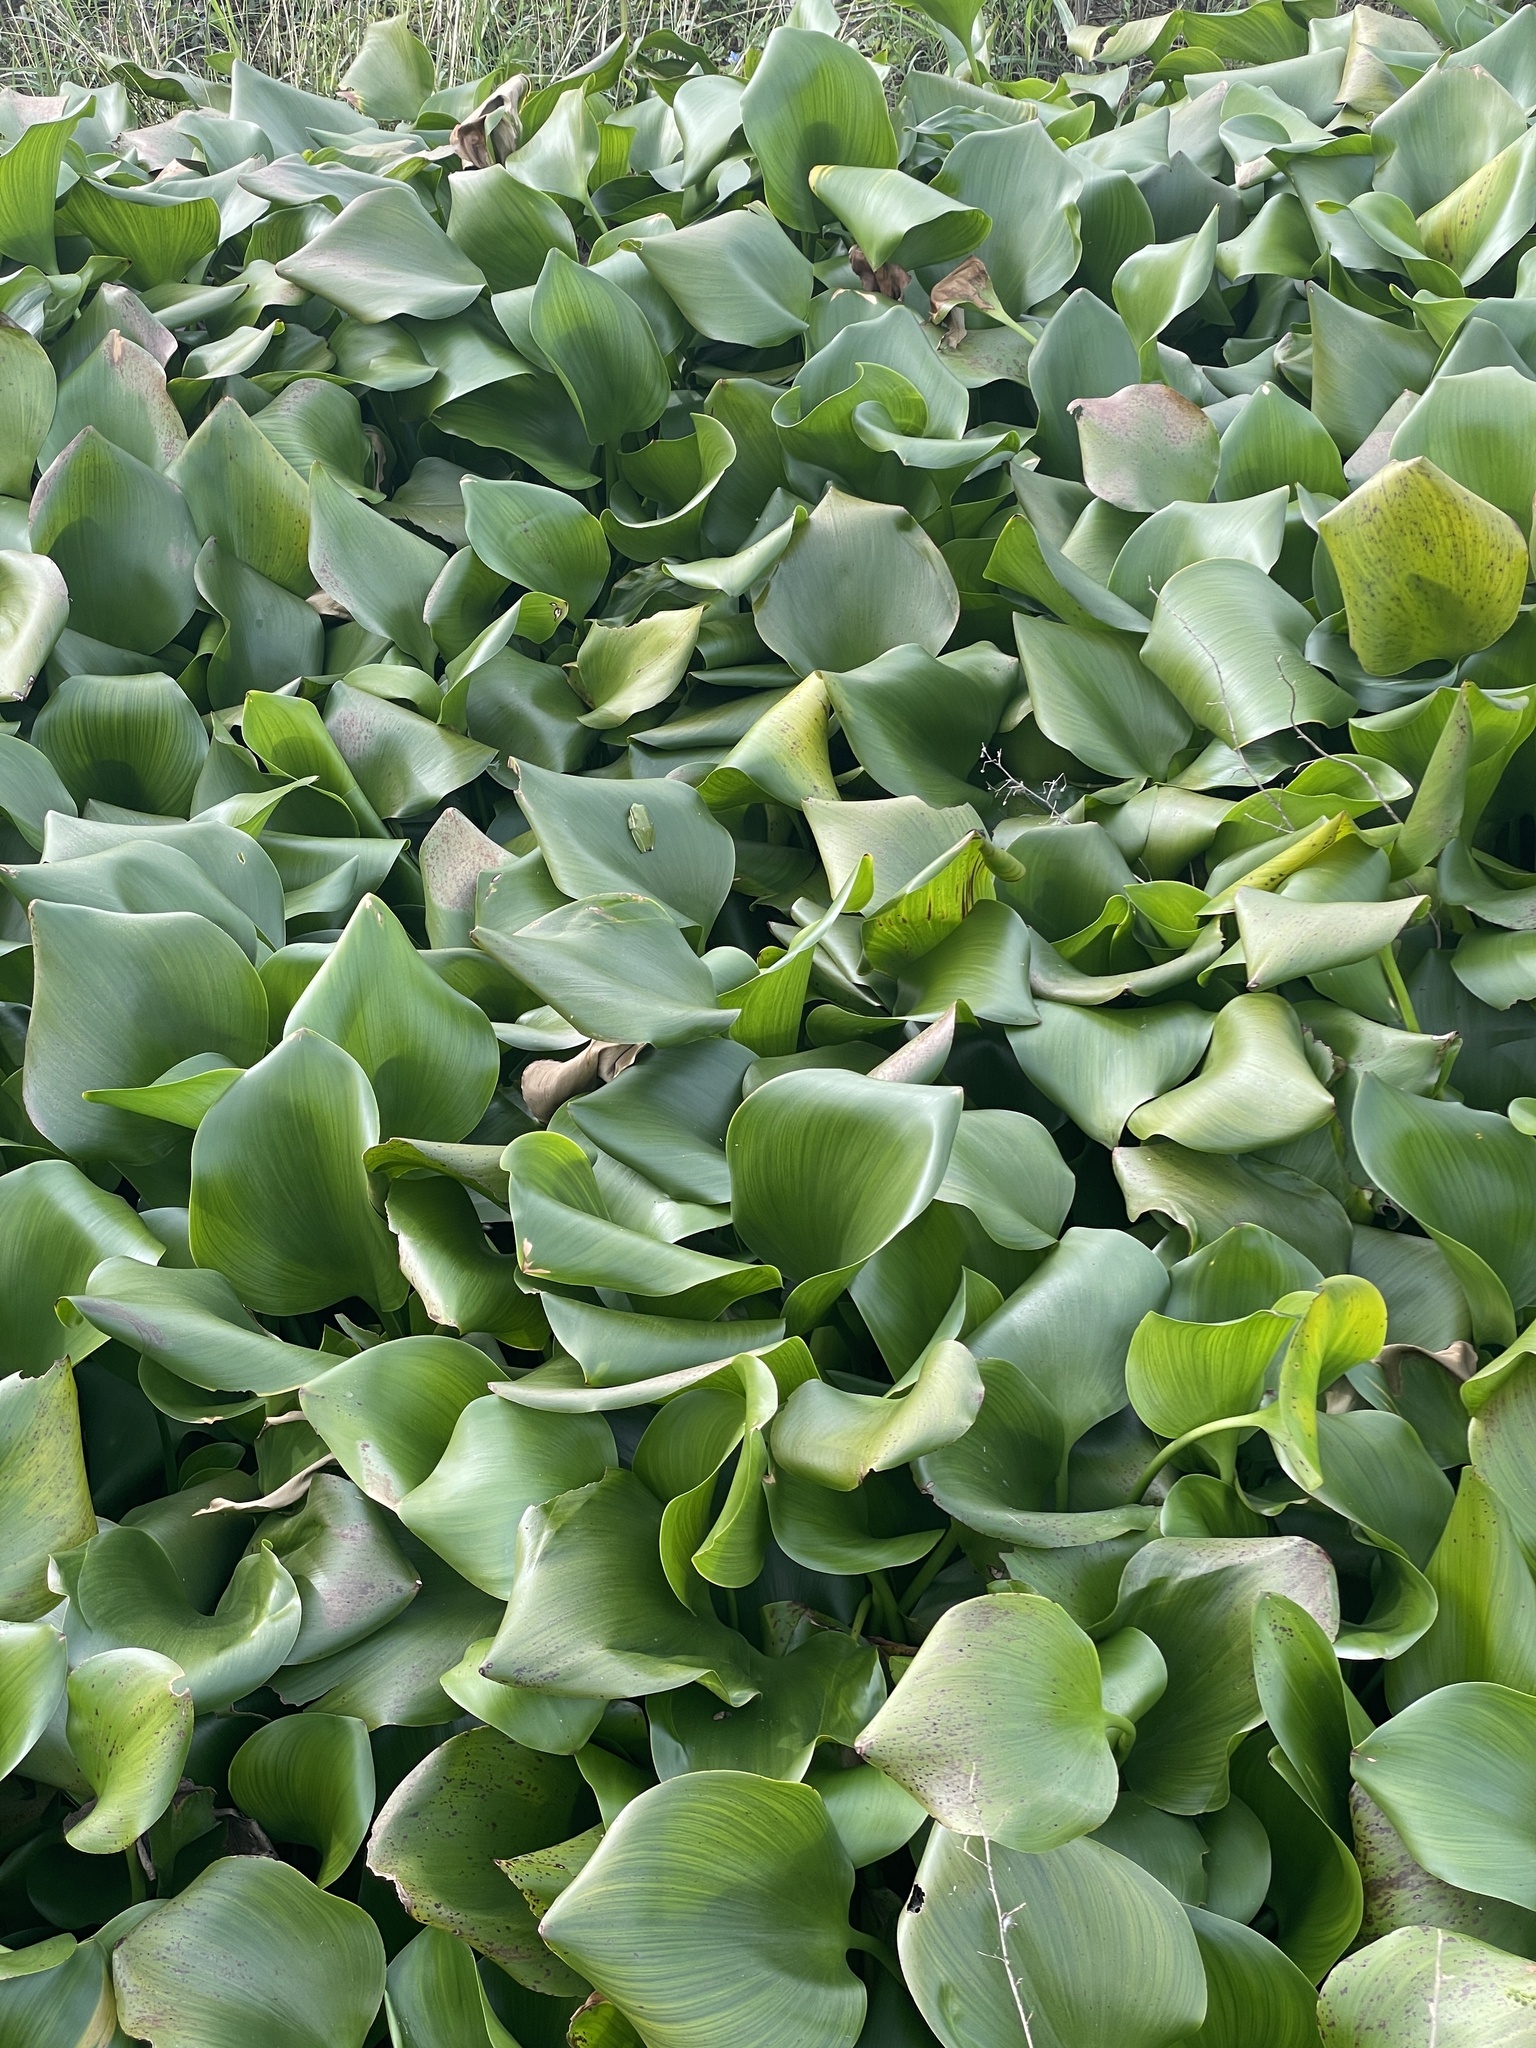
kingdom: Plantae
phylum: Tracheophyta
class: Liliopsida
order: Commelinales
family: Pontederiaceae
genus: Pontederia
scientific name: Pontederia crassipes
